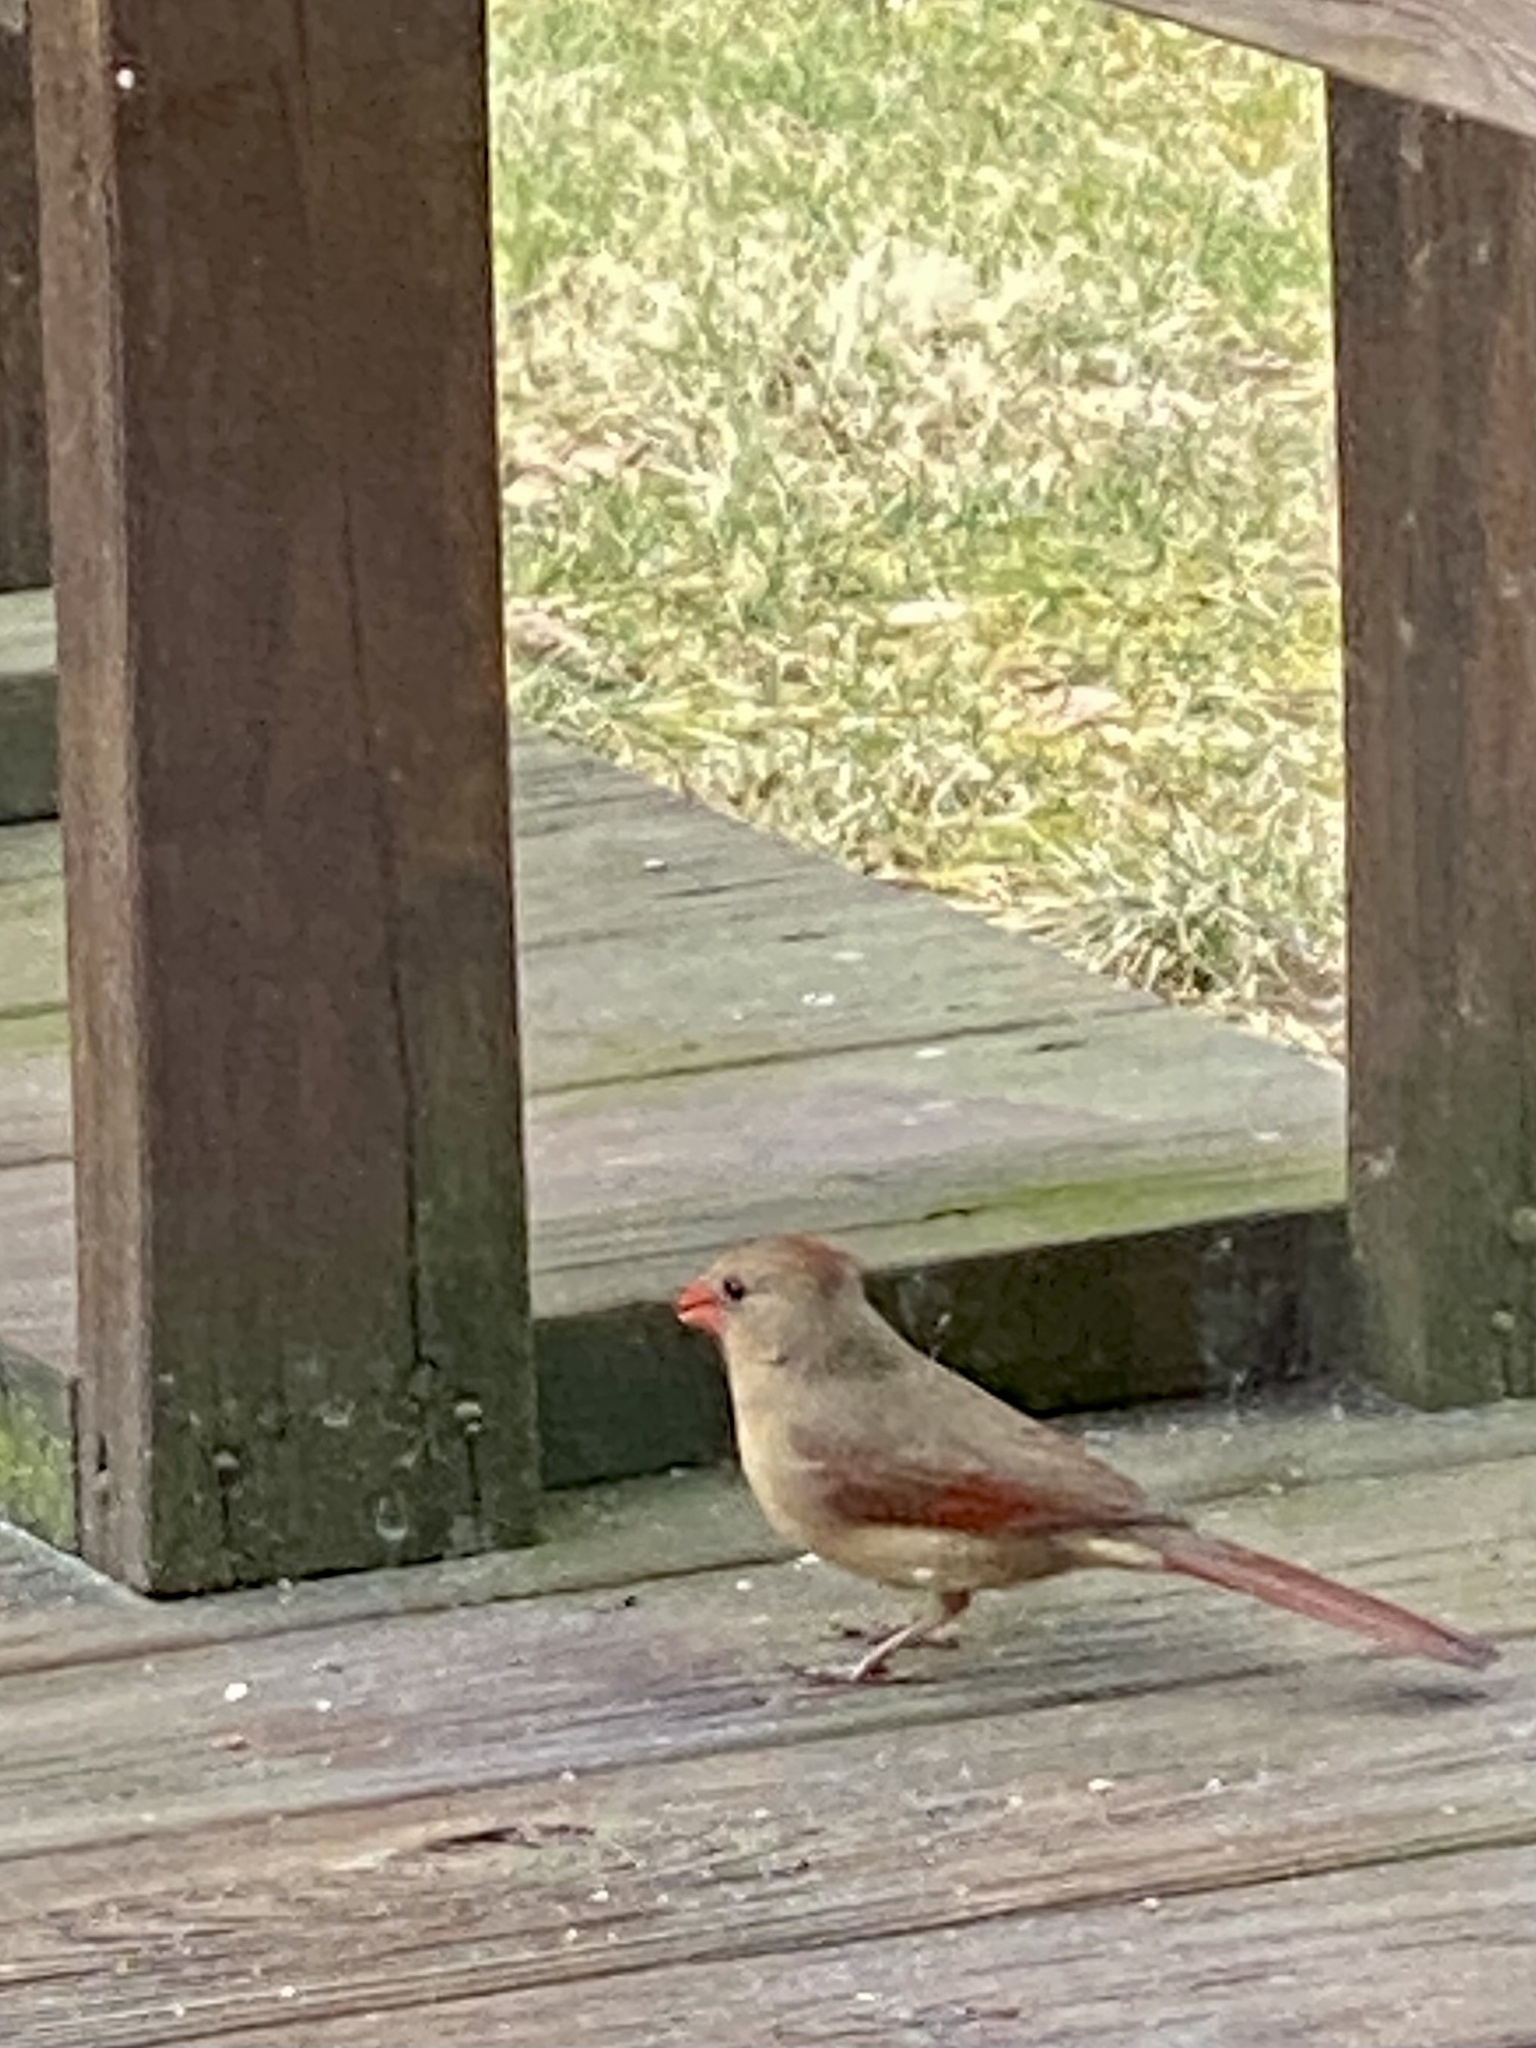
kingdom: Animalia
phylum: Chordata
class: Aves
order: Passeriformes
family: Cardinalidae
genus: Cardinalis
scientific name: Cardinalis cardinalis
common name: Northern cardinal
